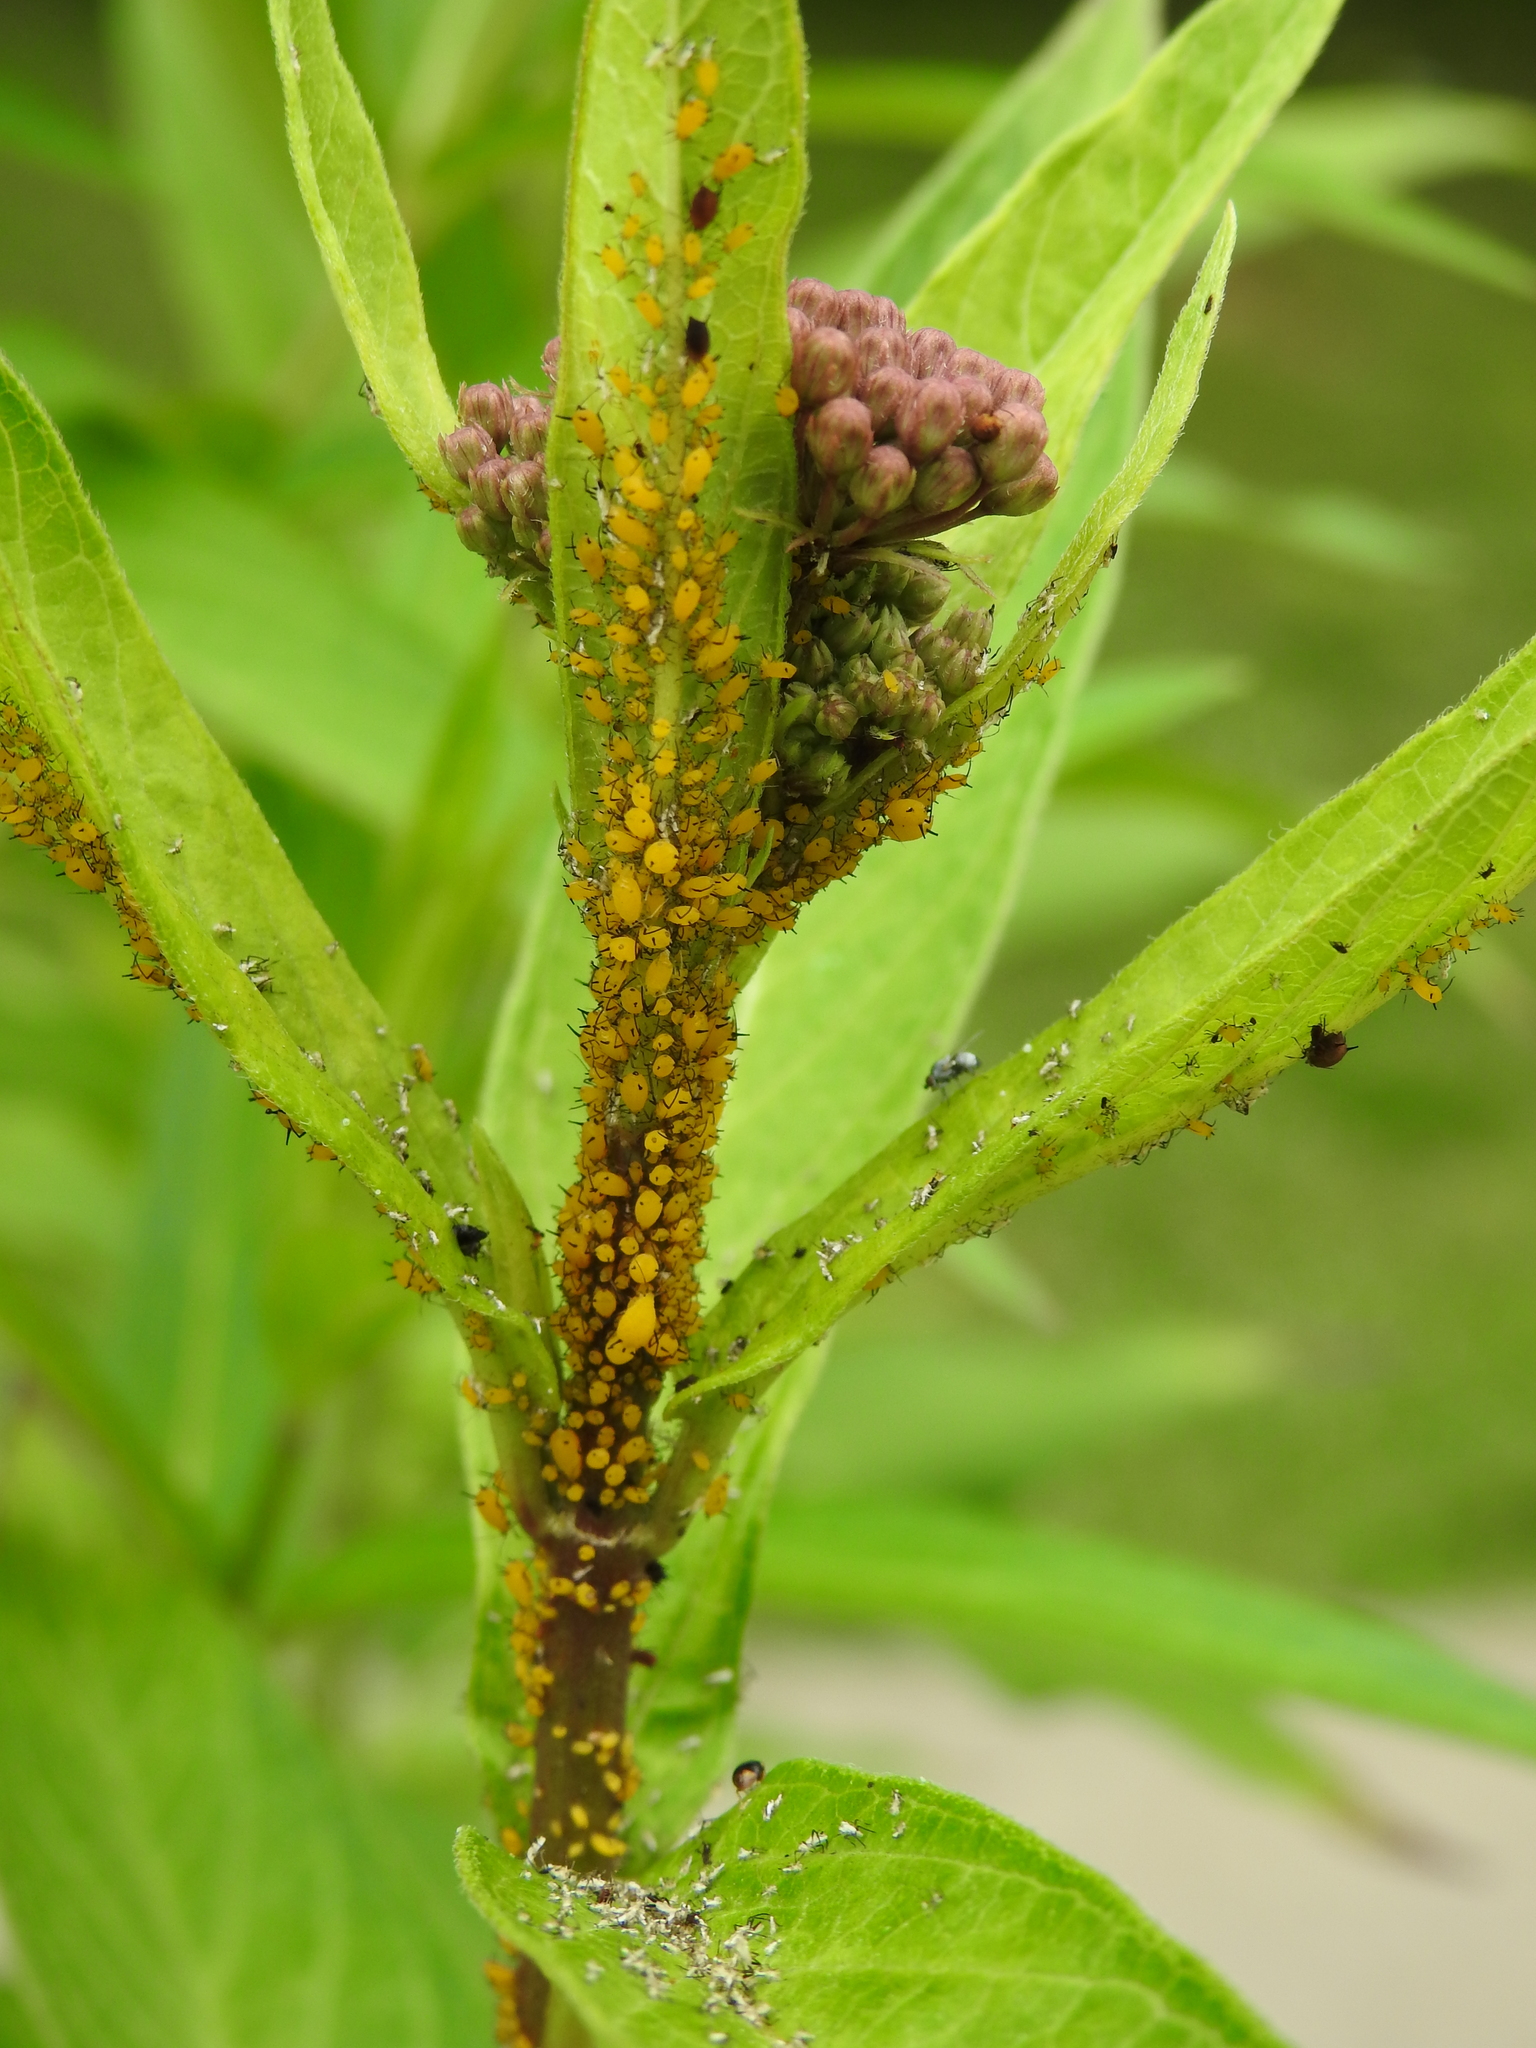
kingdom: Animalia
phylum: Arthropoda
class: Insecta
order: Hemiptera
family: Aphididae
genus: Aphis
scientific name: Aphis nerii
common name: Oleander aphid
